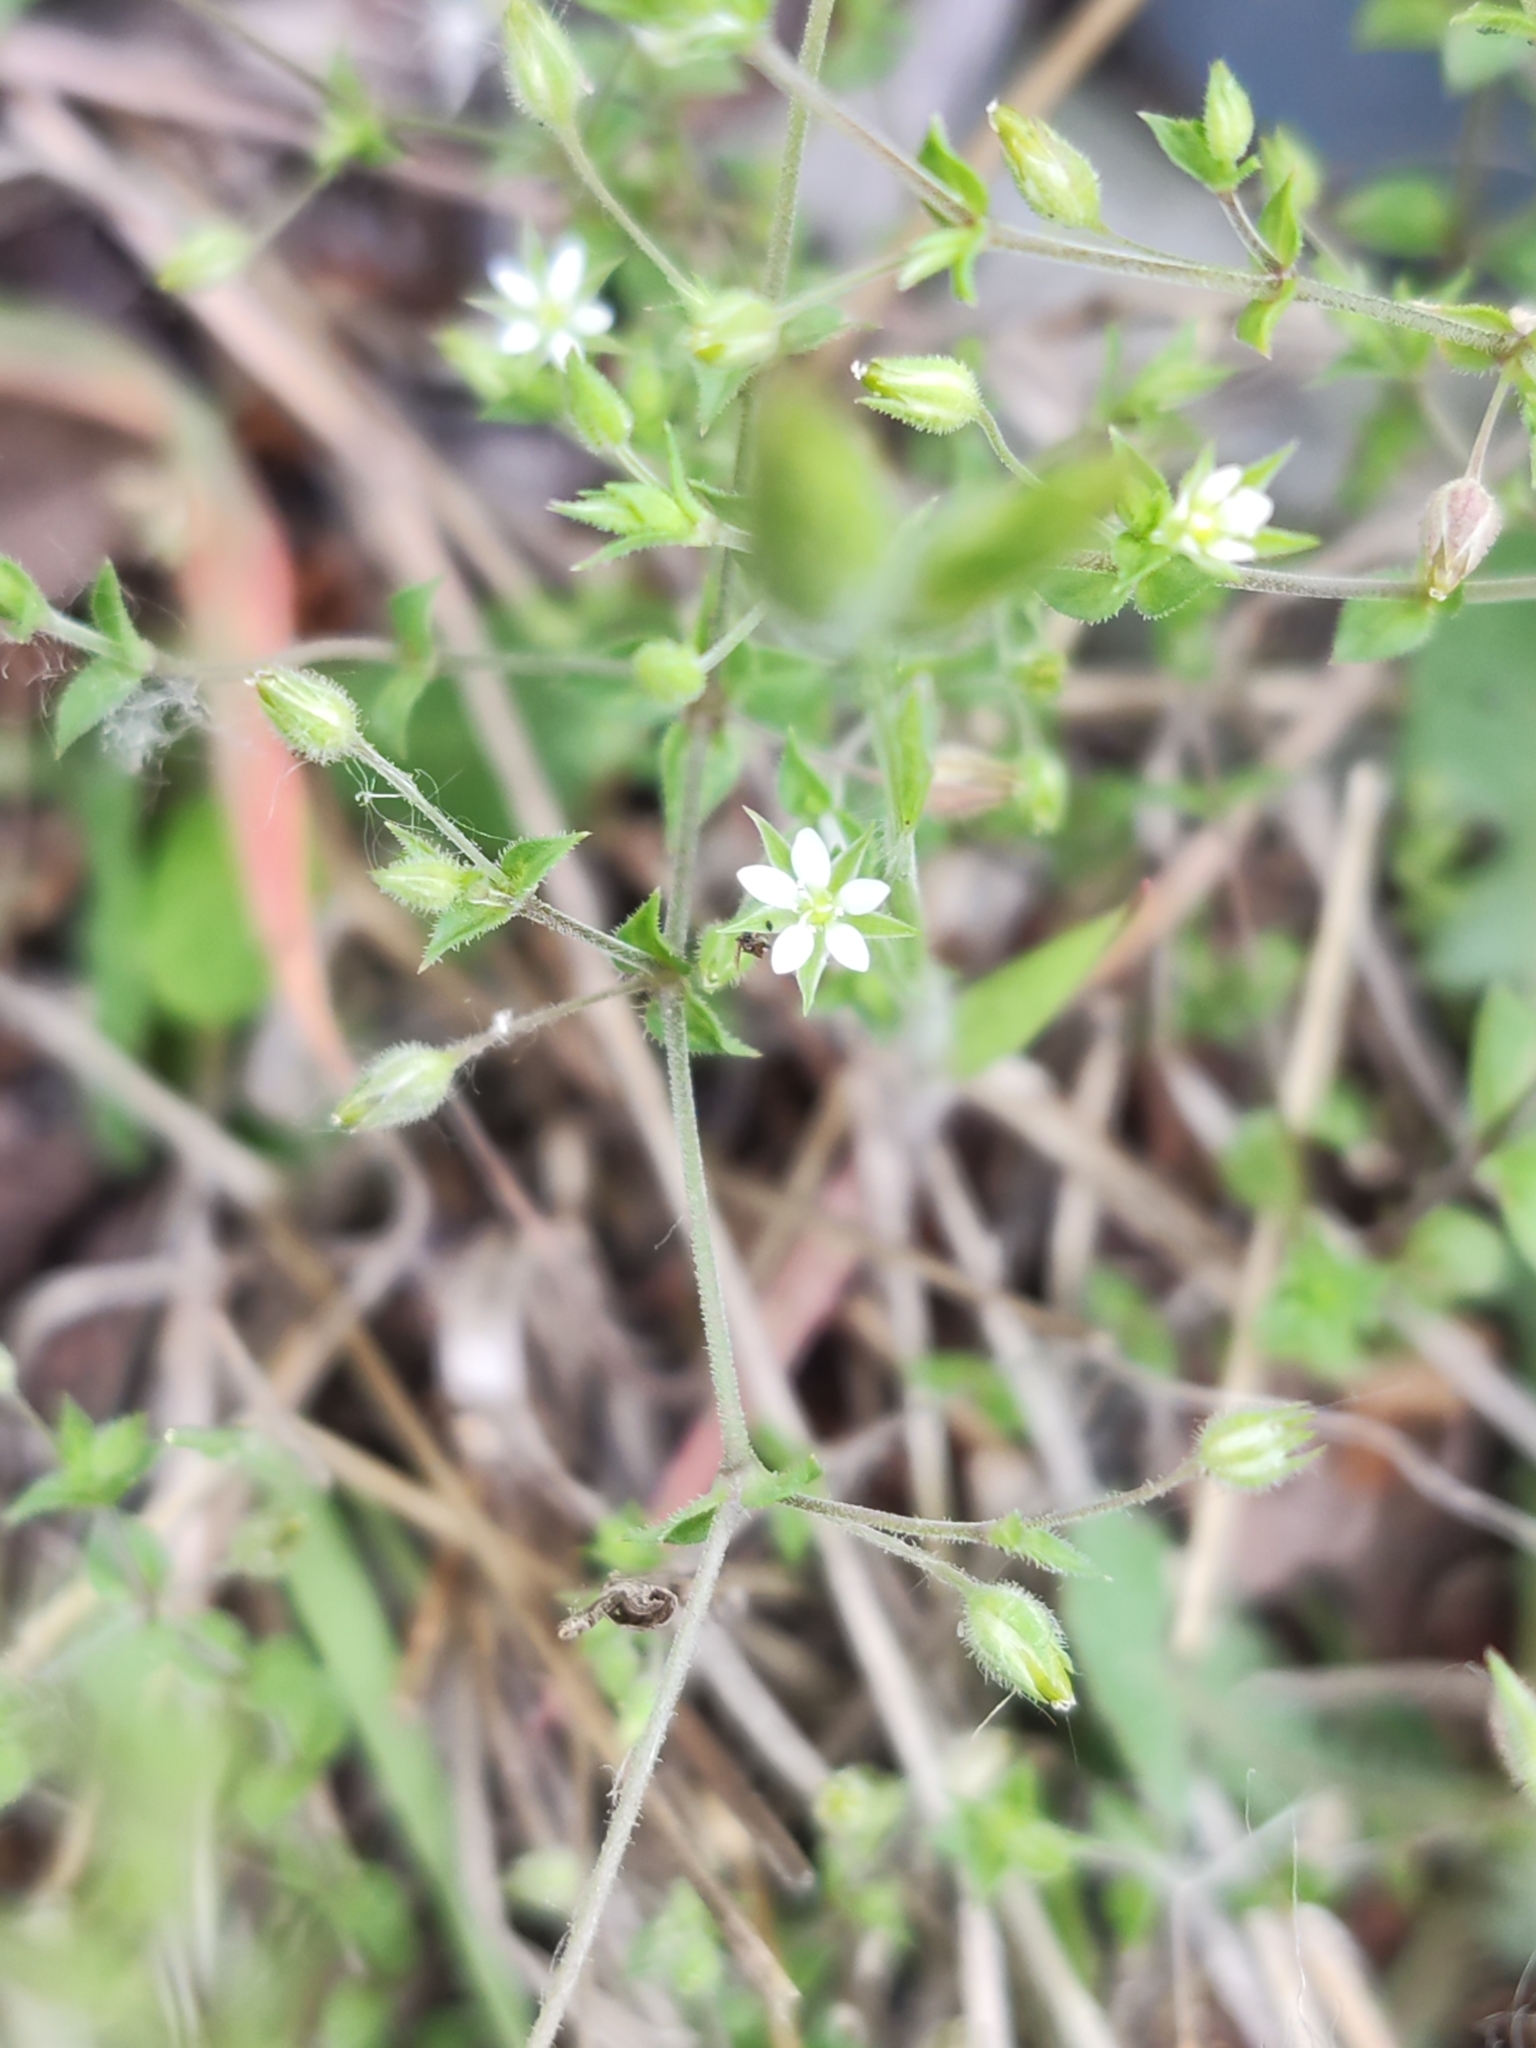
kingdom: Plantae
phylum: Tracheophyta
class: Magnoliopsida
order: Caryophyllales
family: Caryophyllaceae
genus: Arenaria
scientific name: Arenaria serpyllifolia
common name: Thyme-leaved sandwort
